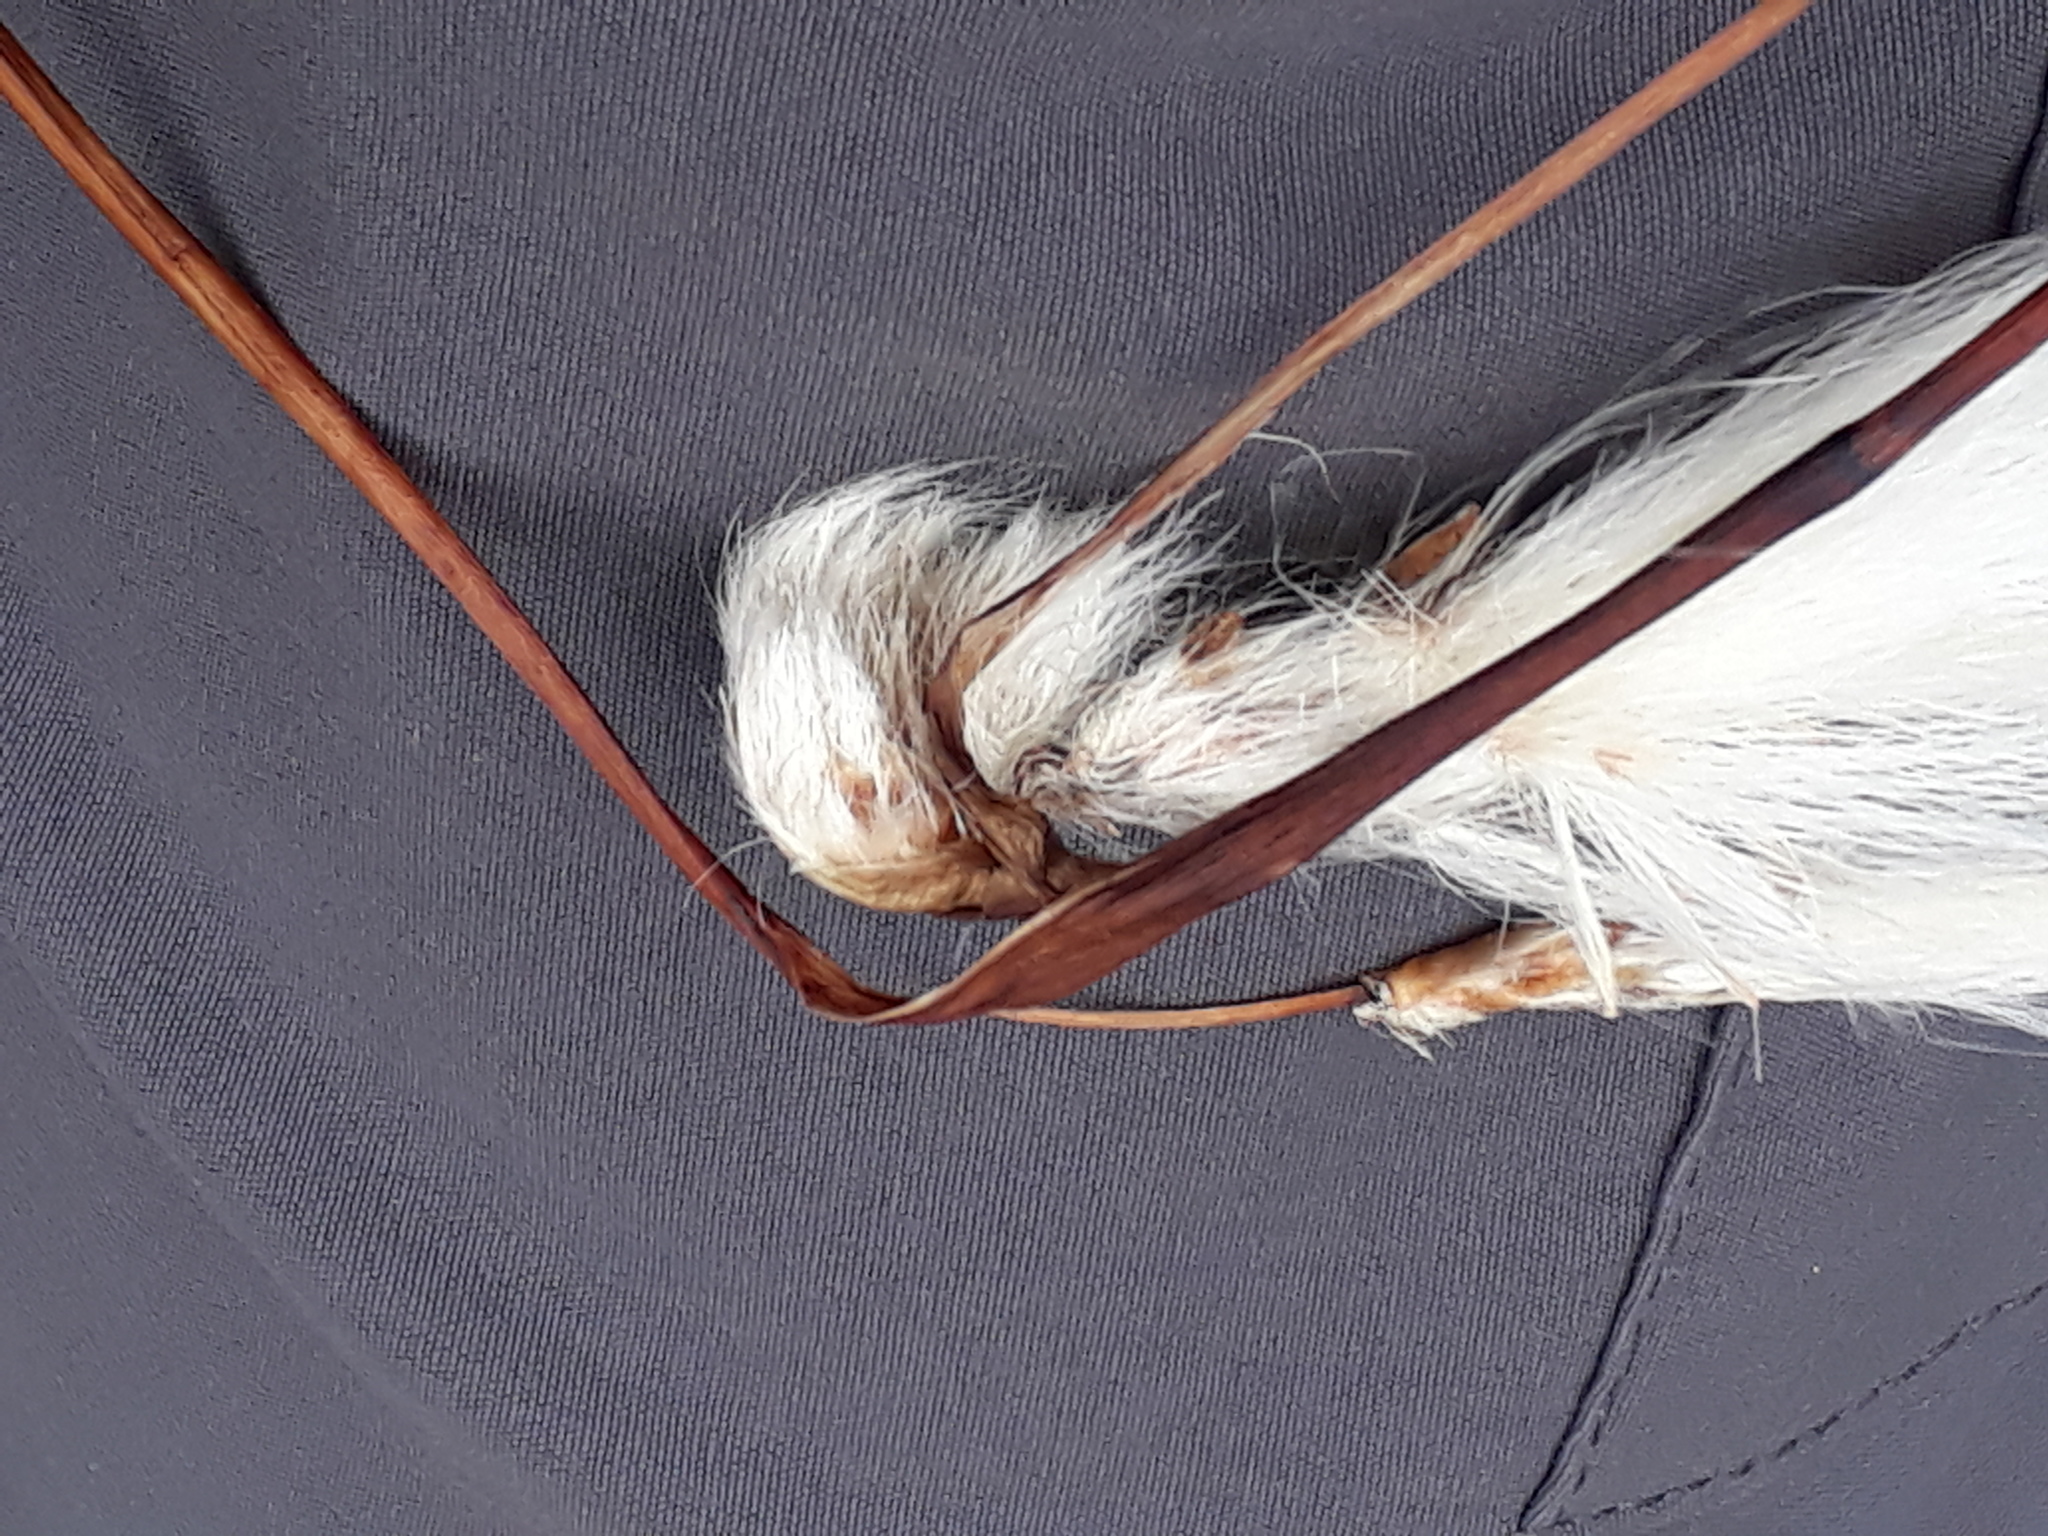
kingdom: Plantae
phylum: Tracheophyta
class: Liliopsida
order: Poales
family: Cyperaceae
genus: Eriophorum
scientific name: Eriophorum angustifolium
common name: Common cottongrass
